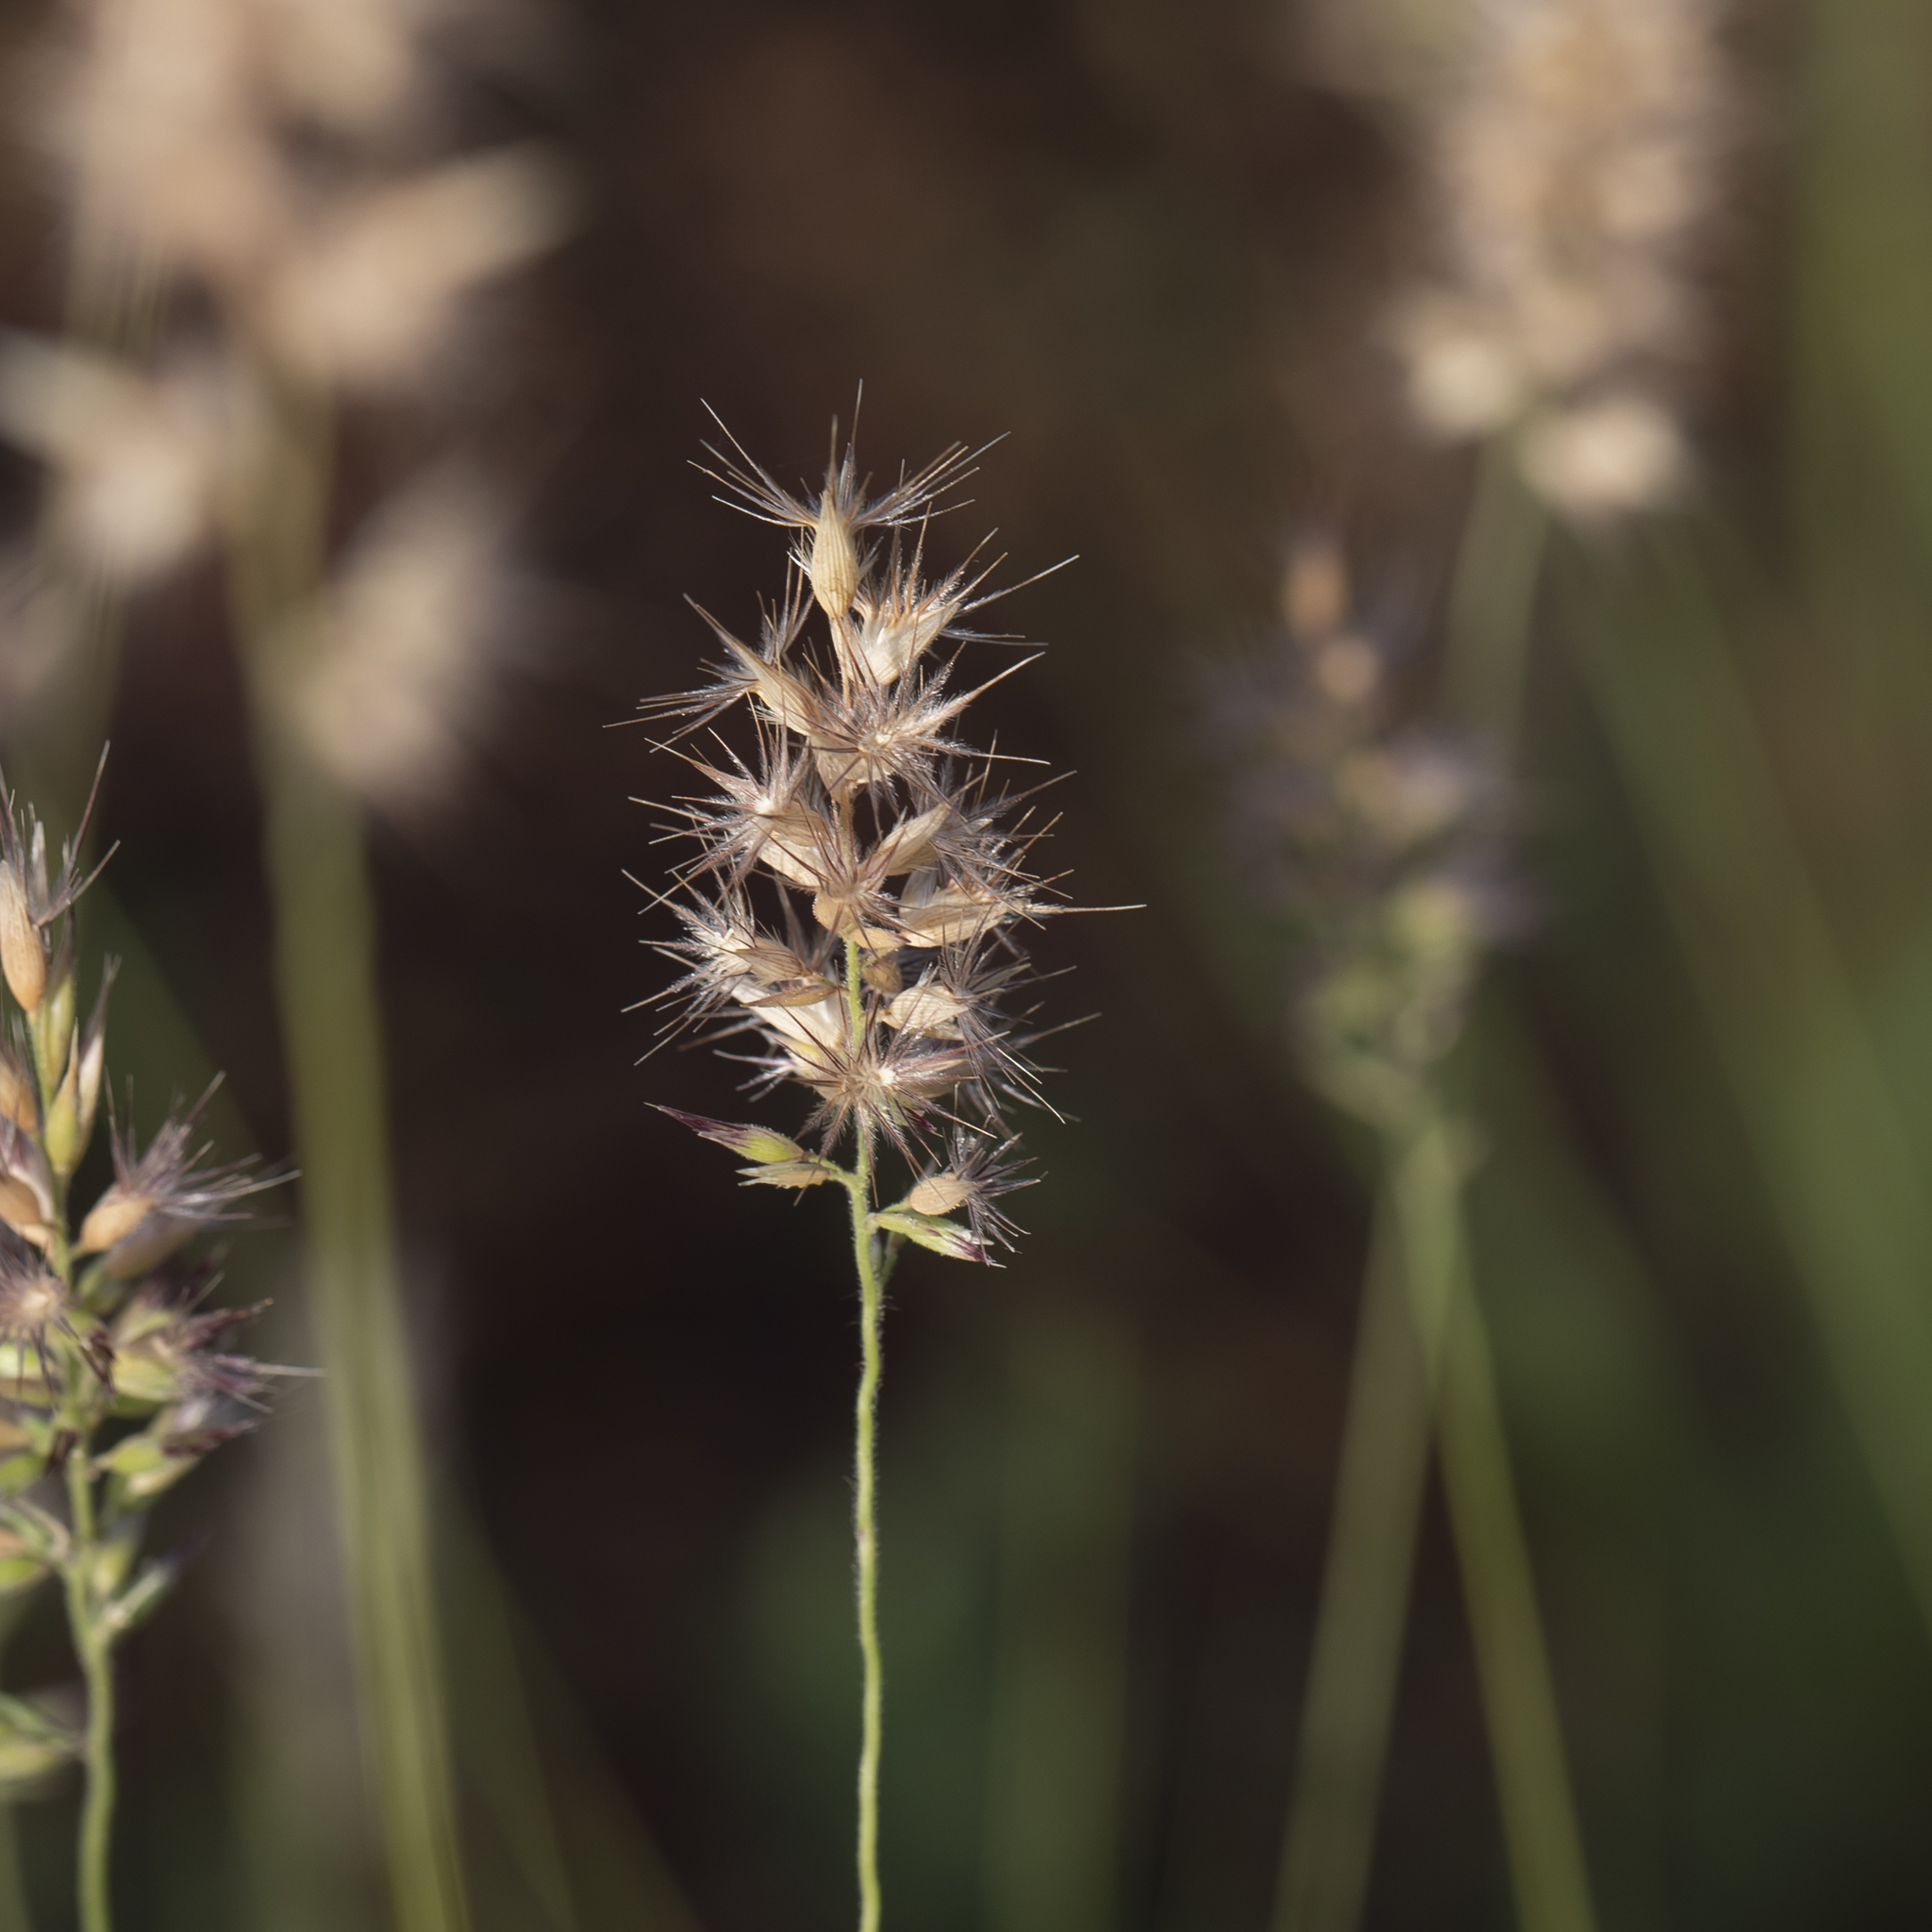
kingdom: Plantae
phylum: Tracheophyta
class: Liliopsida
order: Poales
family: Poaceae
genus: Enneapogon
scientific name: Enneapogon decipiens
